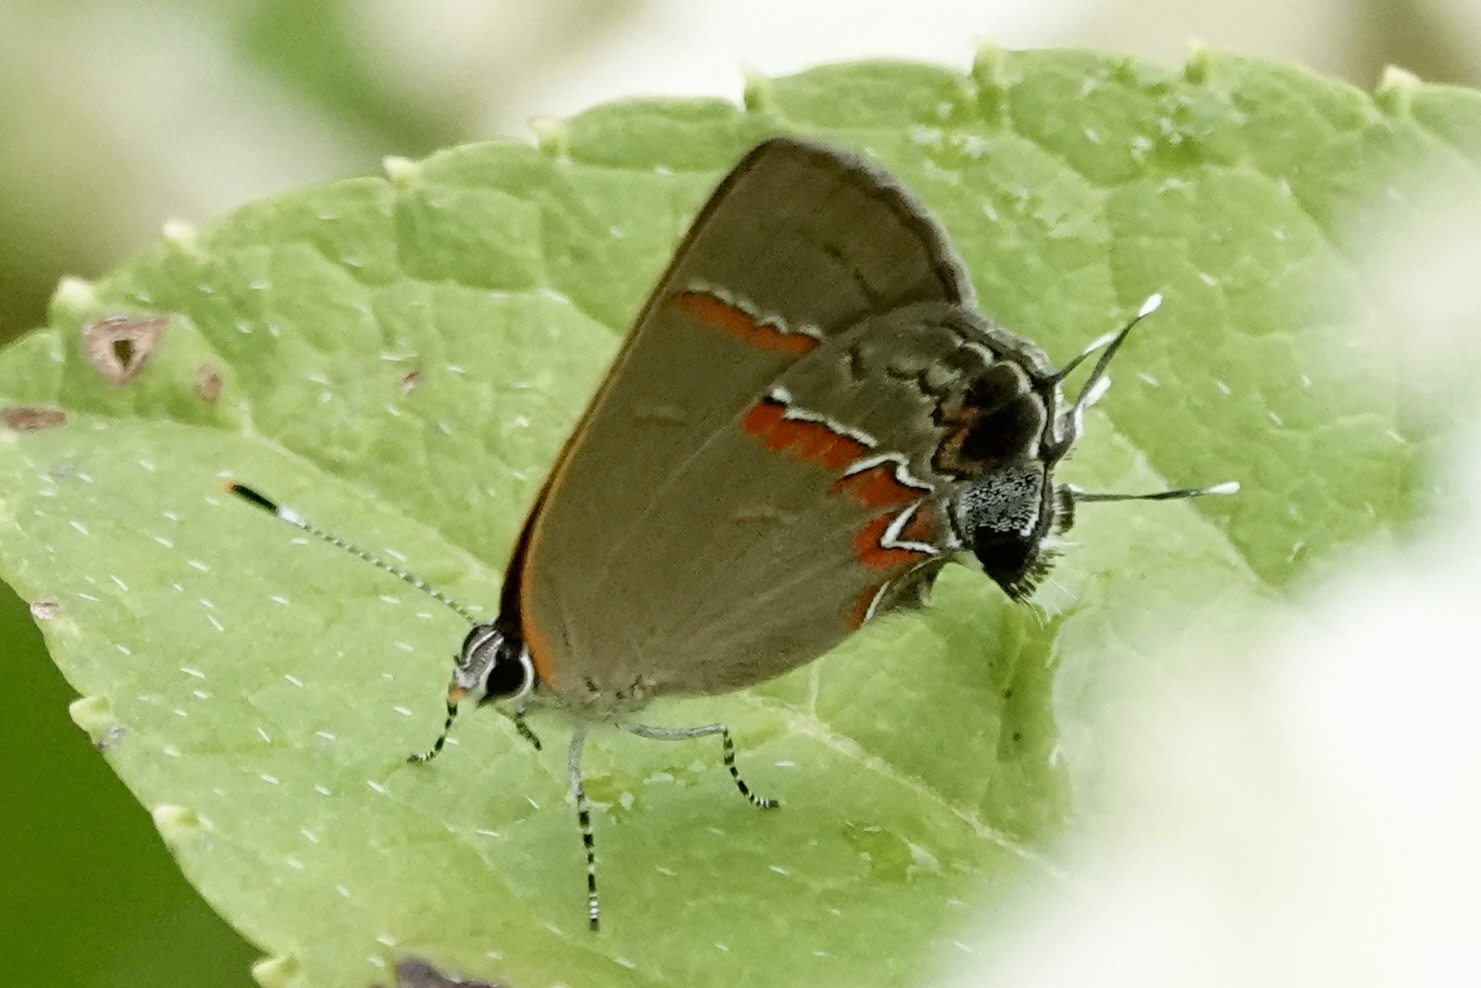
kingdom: Animalia
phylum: Arthropoda
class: Insecta
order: Lepidoptera
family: Lycaenidae
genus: Calycopis
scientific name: Calycopis cecrops
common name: Red-banded hairstreak
